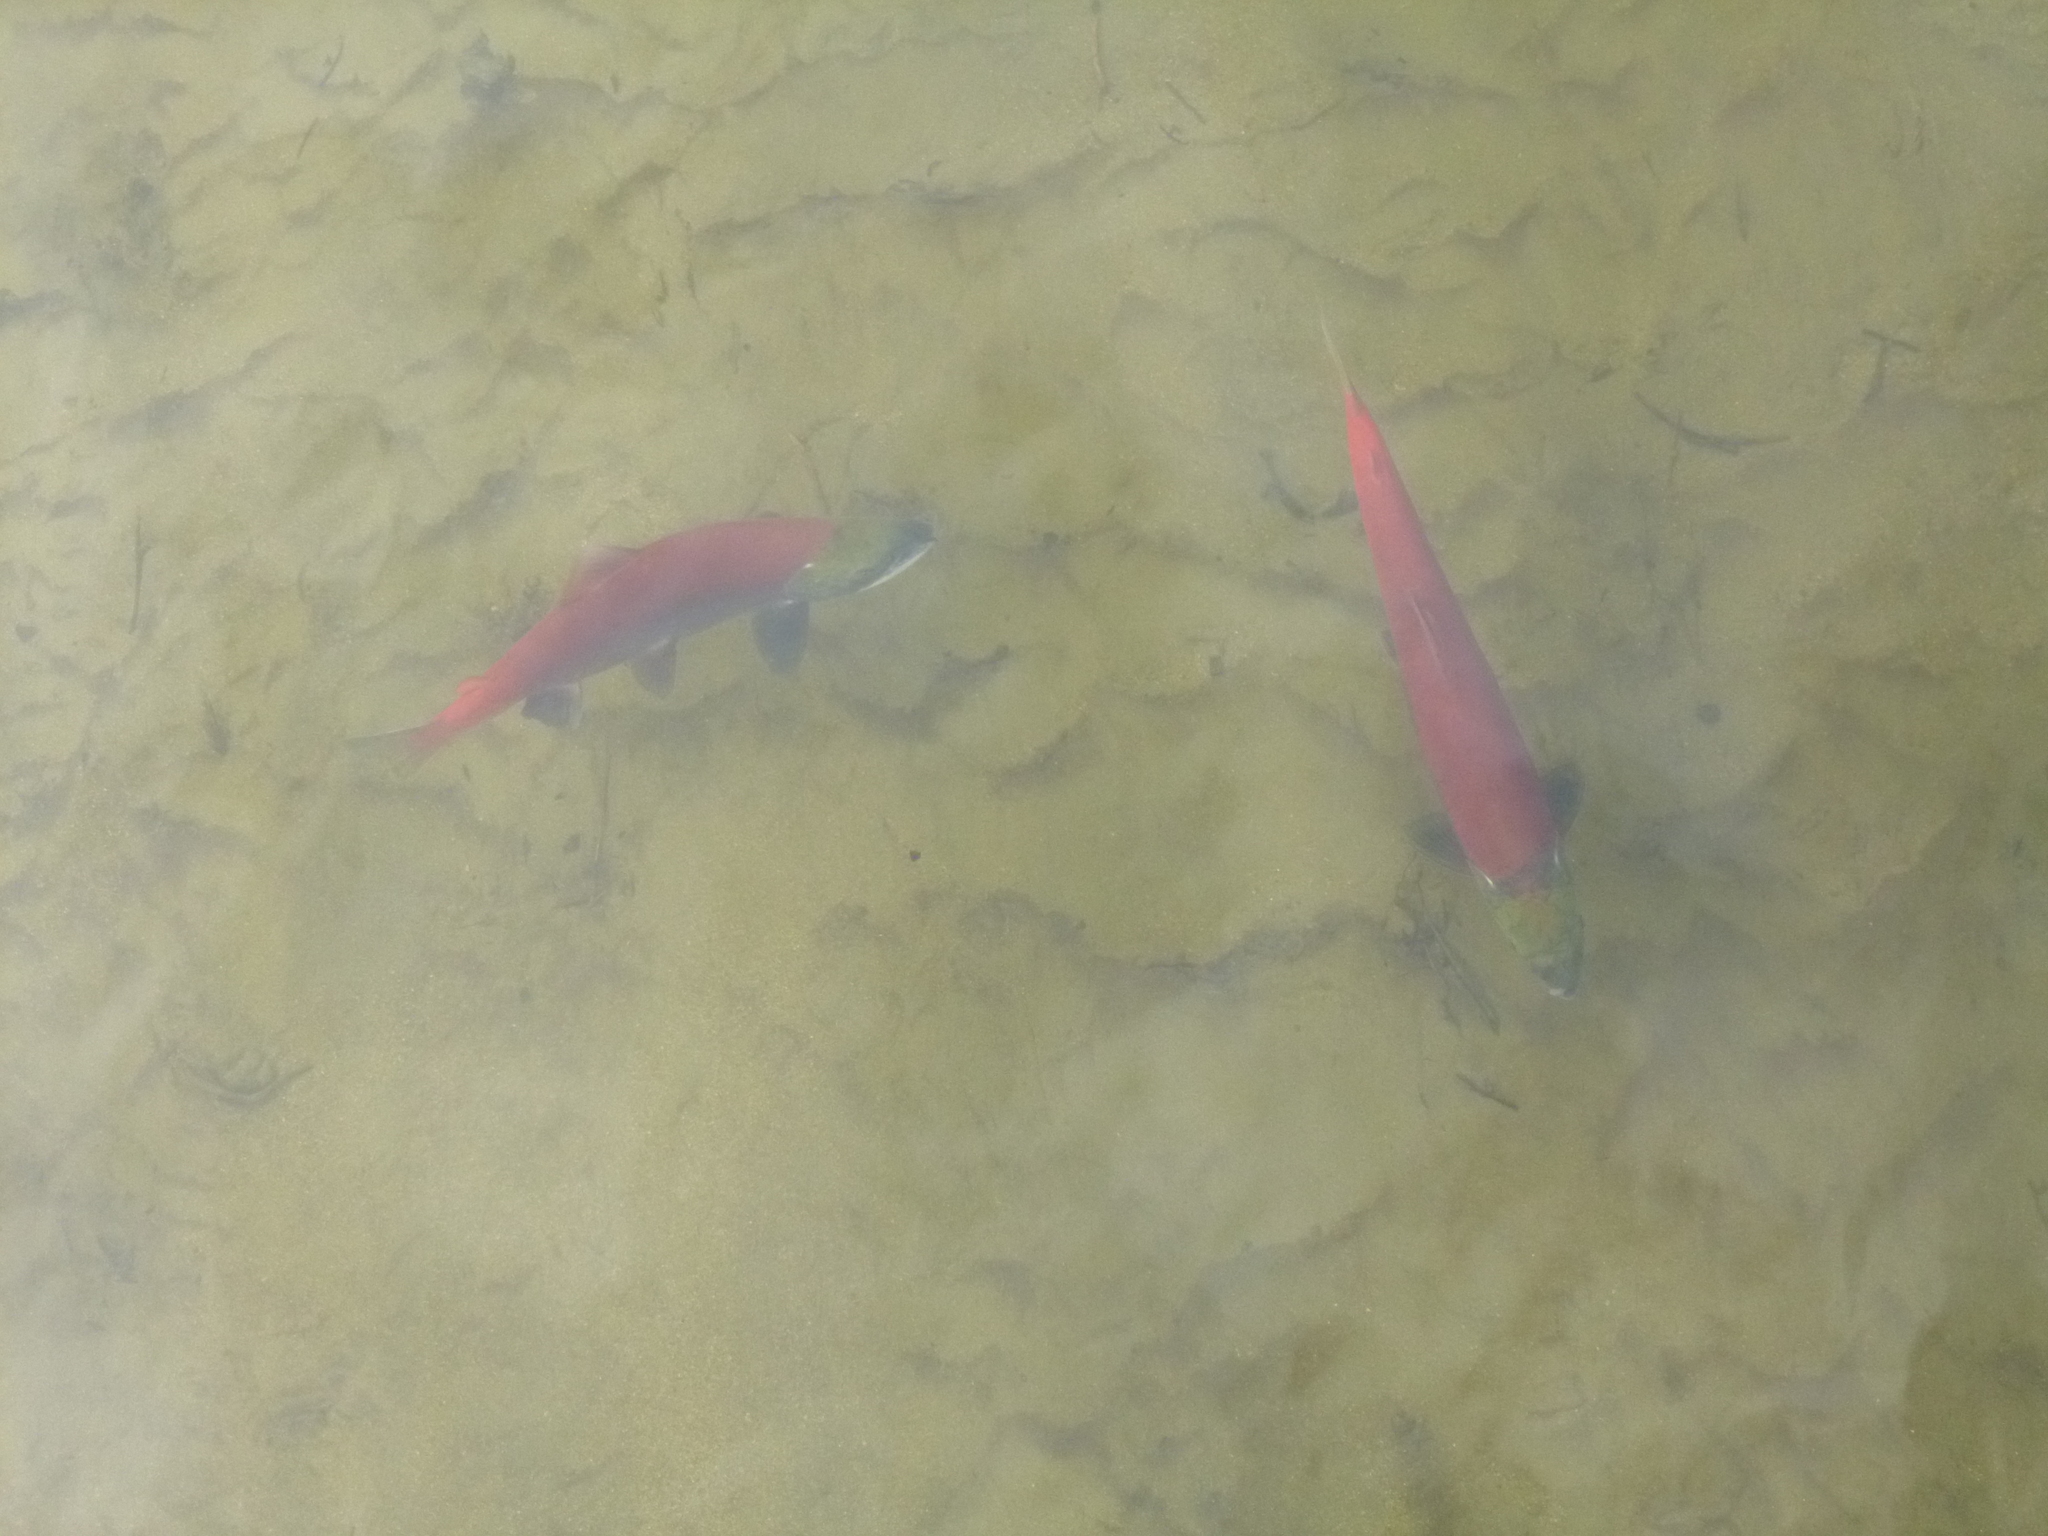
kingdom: Animalia
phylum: Chordata
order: Salmoniformes
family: Salmonidae
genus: Oncorhynchus
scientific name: Oncorhynchus nerka
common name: Sockeye salmon
